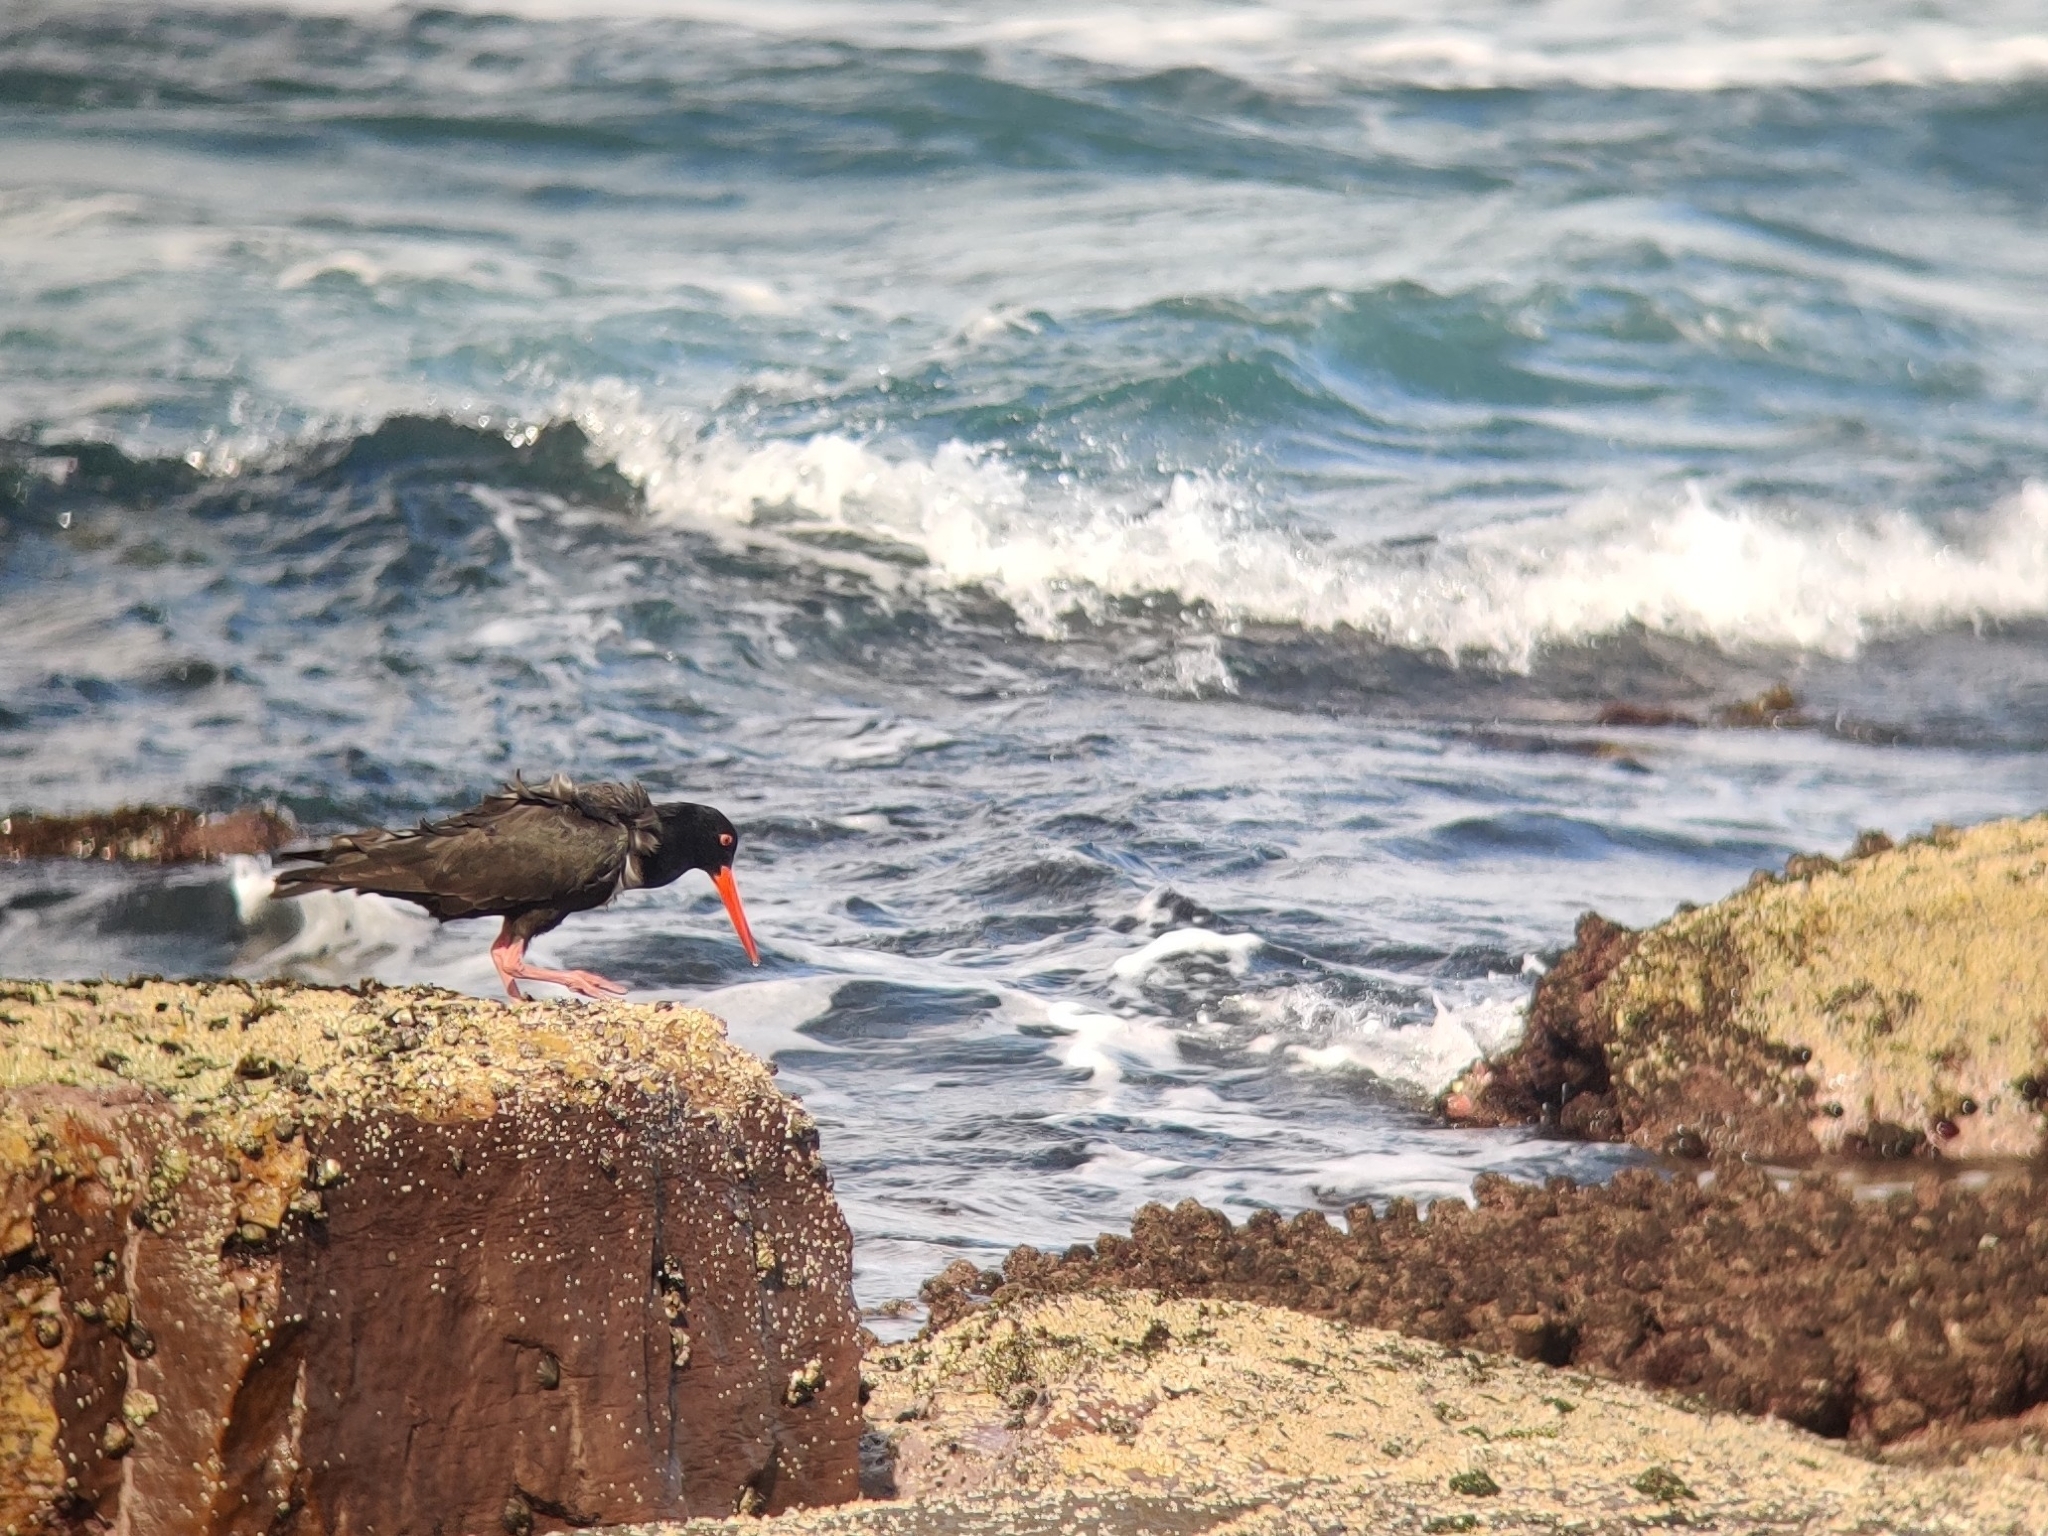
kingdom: Animalia
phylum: Chordata
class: Aves
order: Charadriiformes
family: Haematopodidae
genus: Haematopus
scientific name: Haematopus fuliginosus
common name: Sooty oystercatcher
